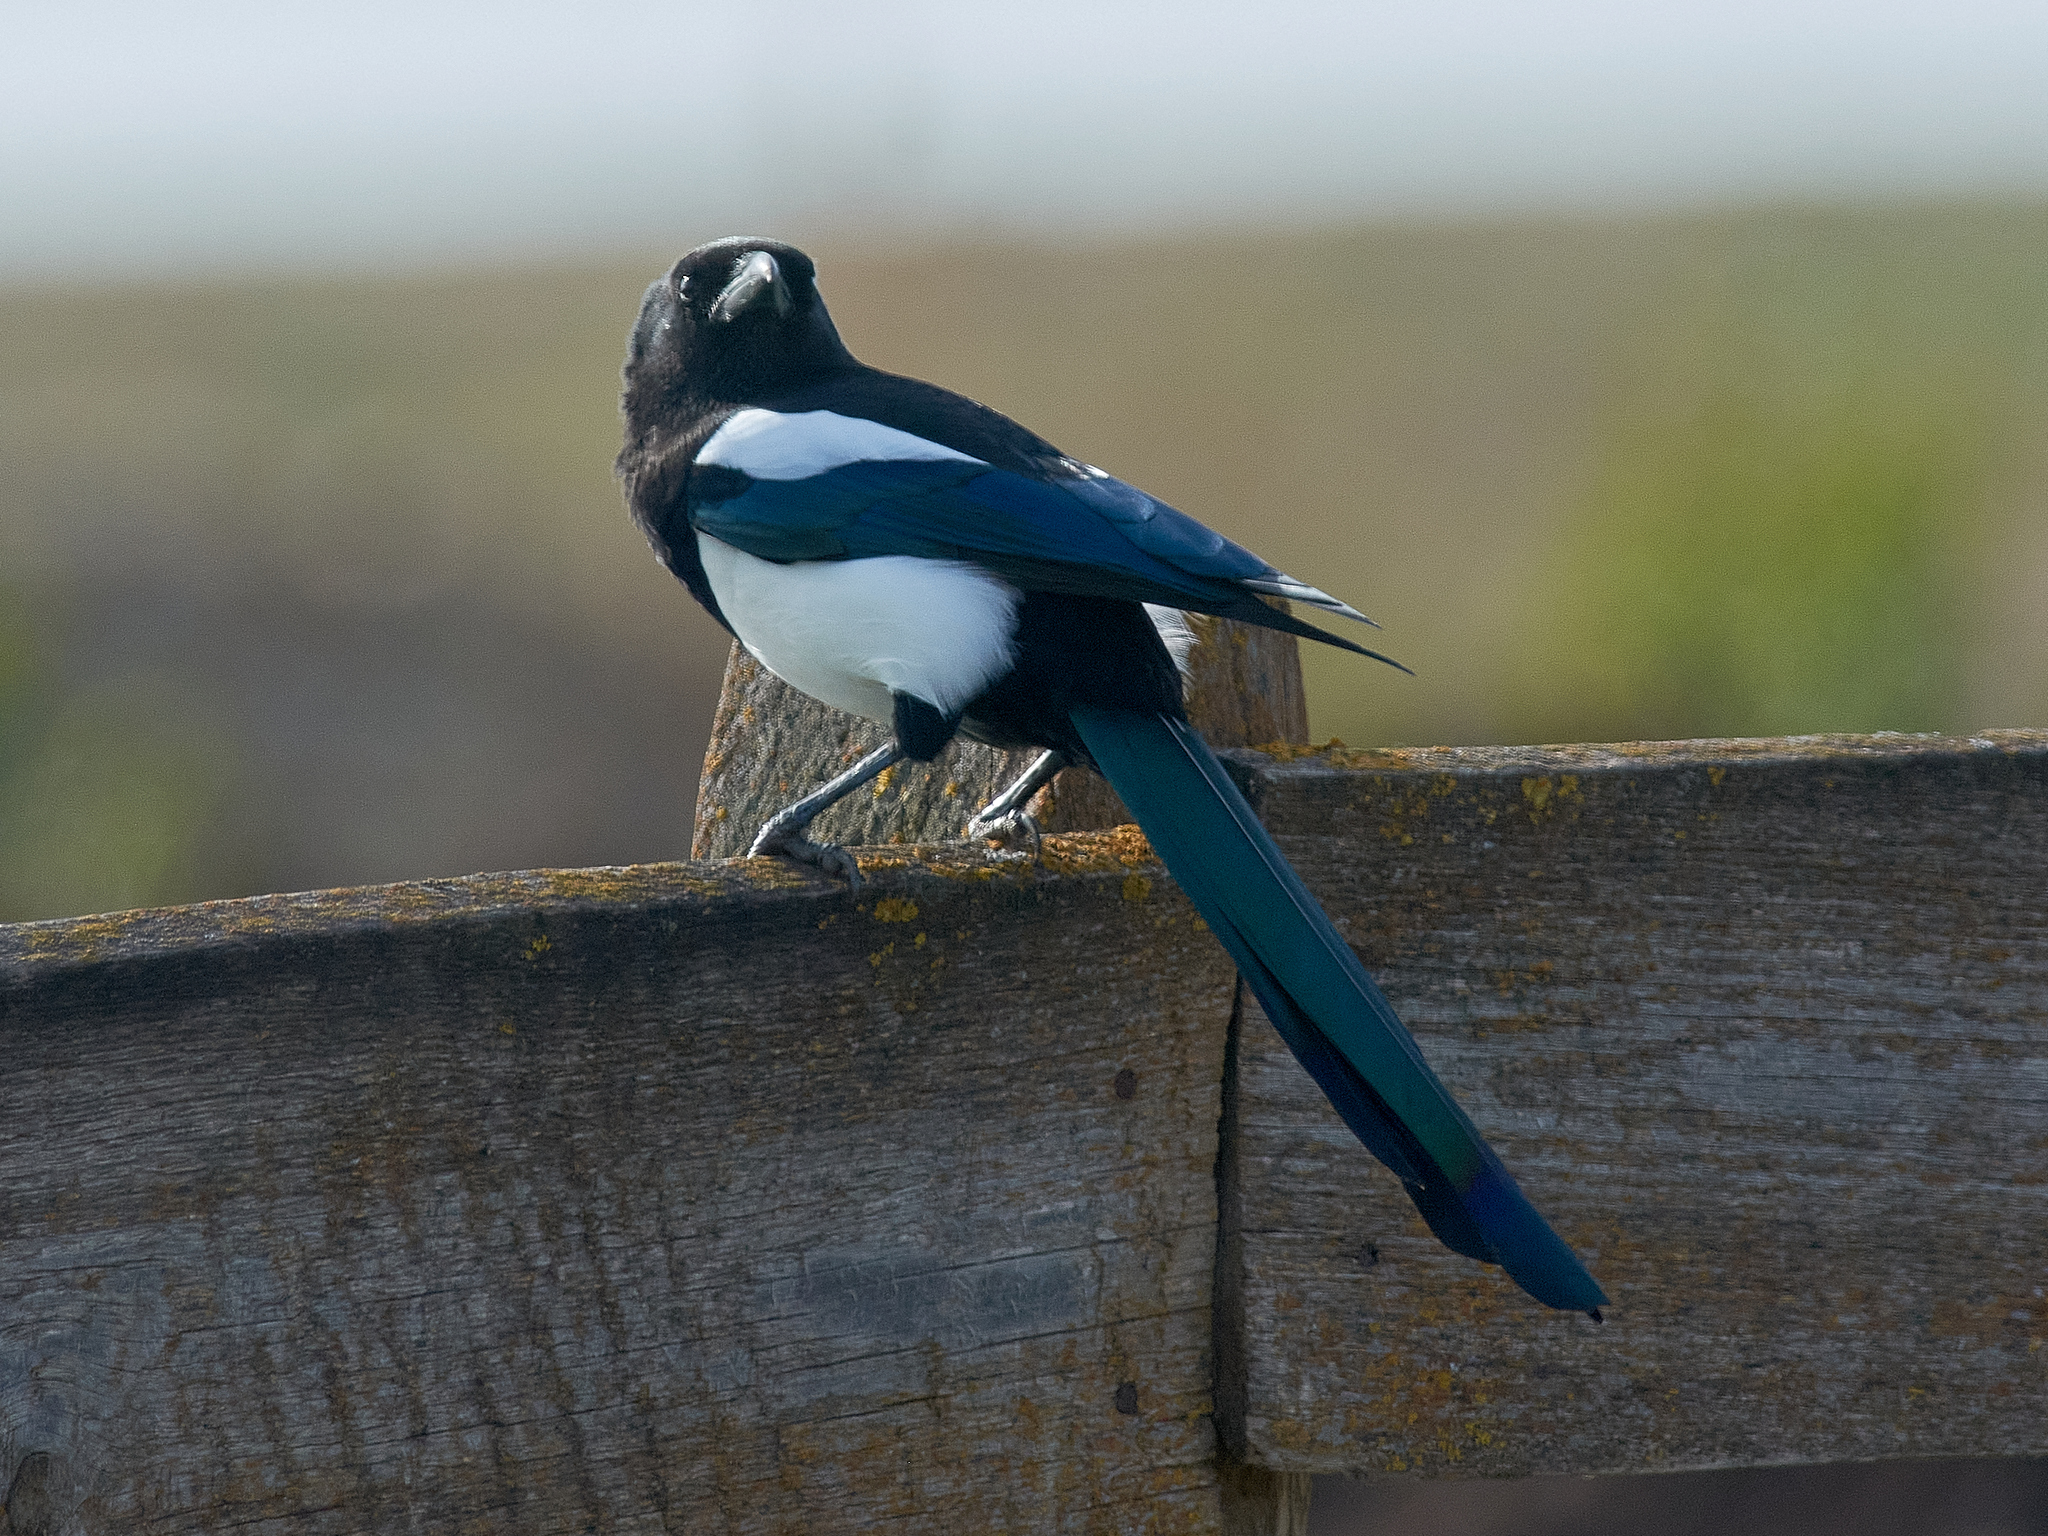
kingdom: Animalia
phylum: Chordata
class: Aves
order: Passeriformes
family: Corvidae
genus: Pica
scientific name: Pica pica
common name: Eurasian magpie
